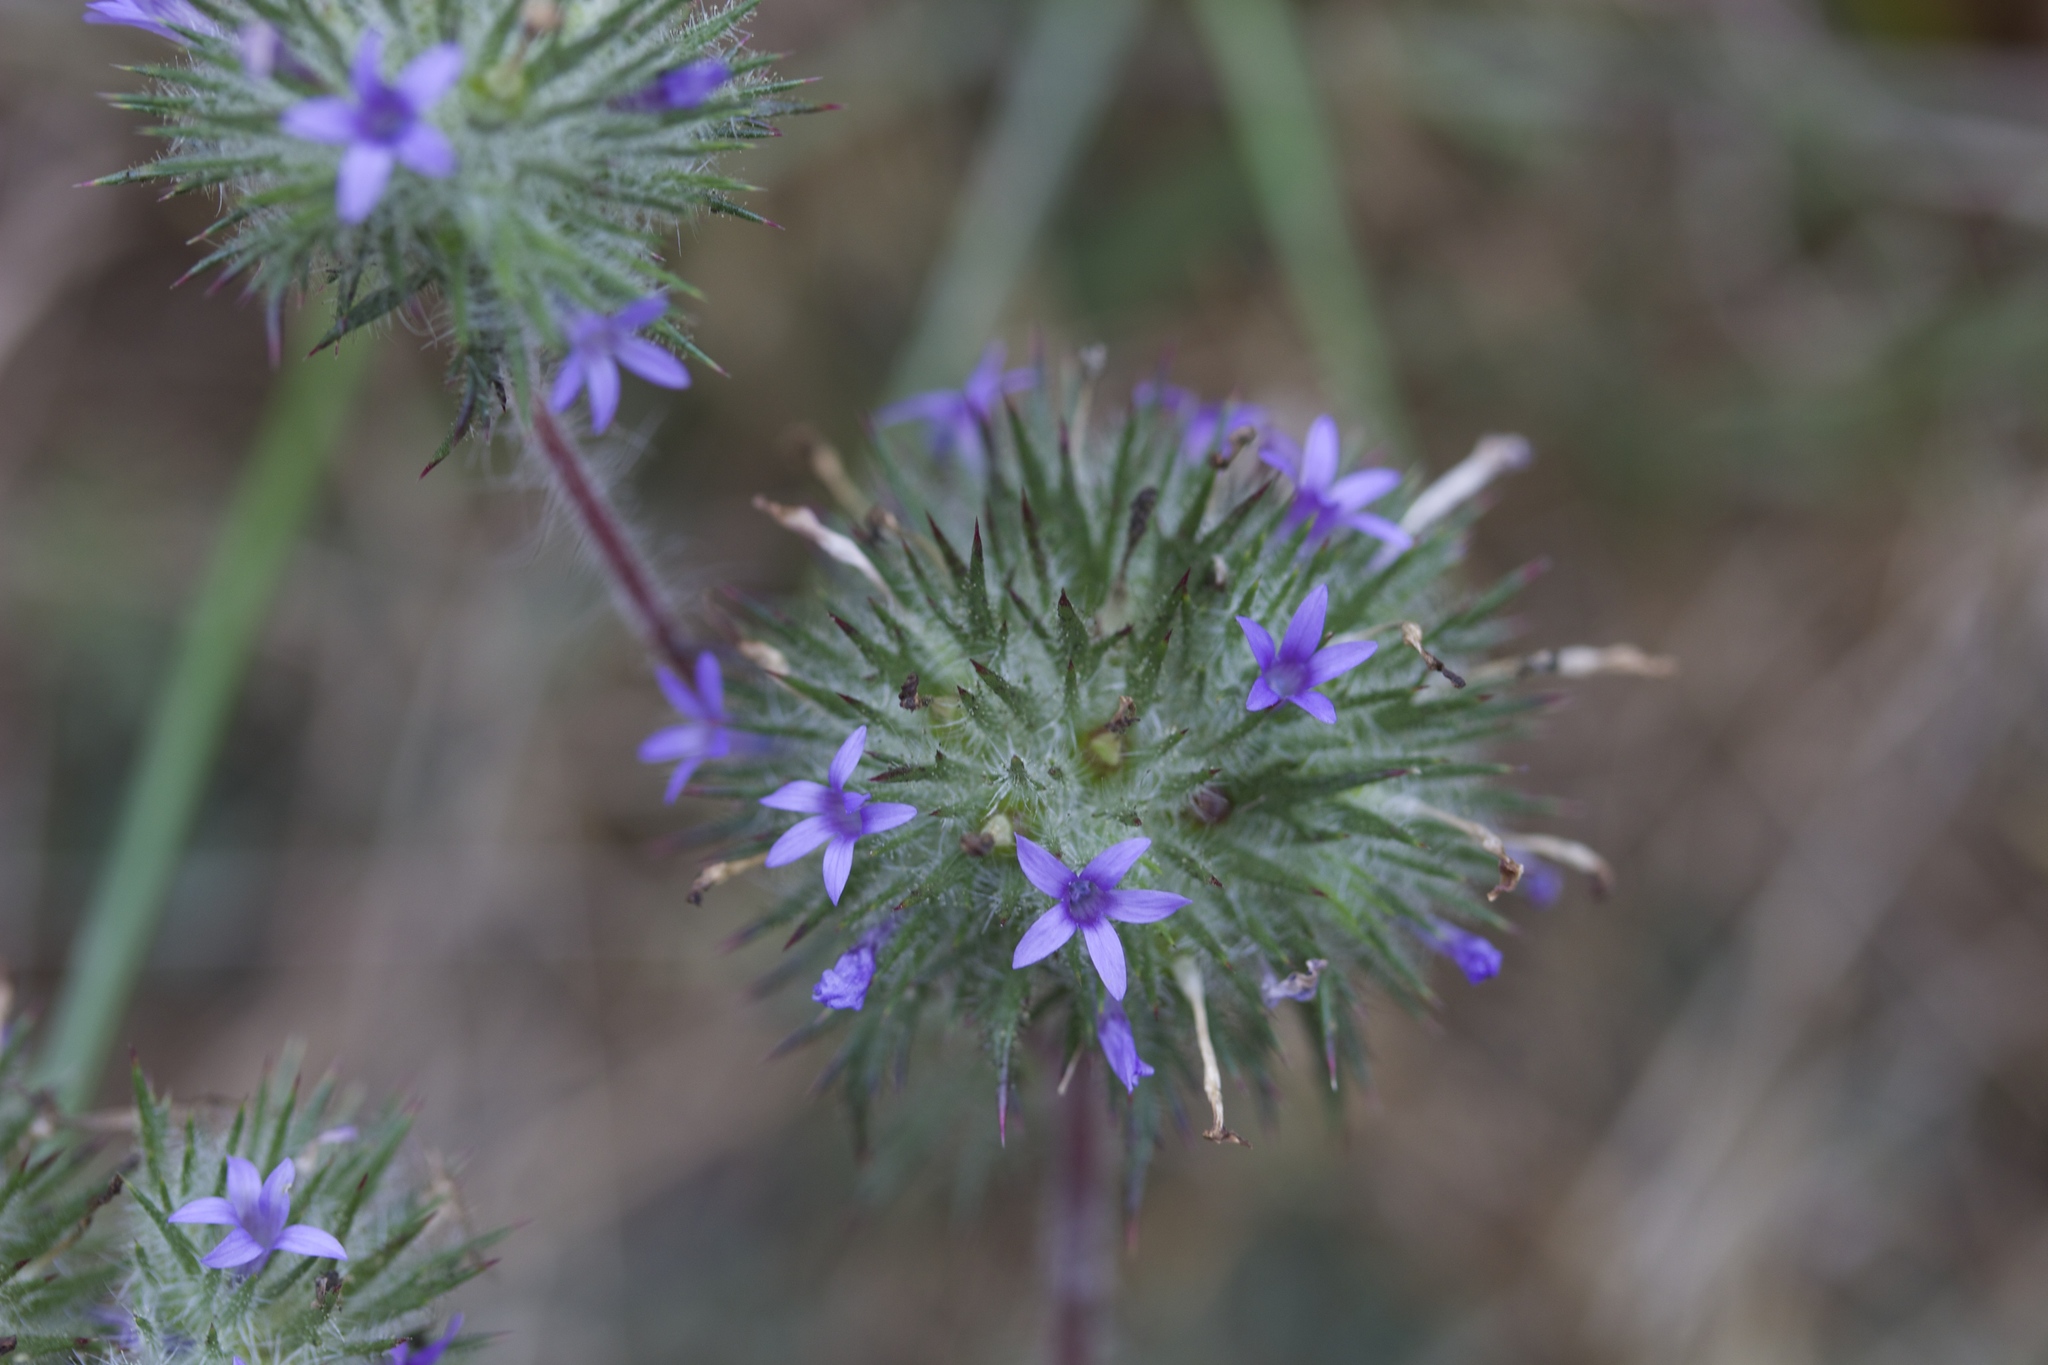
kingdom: Plantae
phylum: Tracheophyta
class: Magnoliopsida
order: Ericales
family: Polemoniaceae
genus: Navarretia
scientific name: Navarretia squarrosa
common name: Skunkweed
